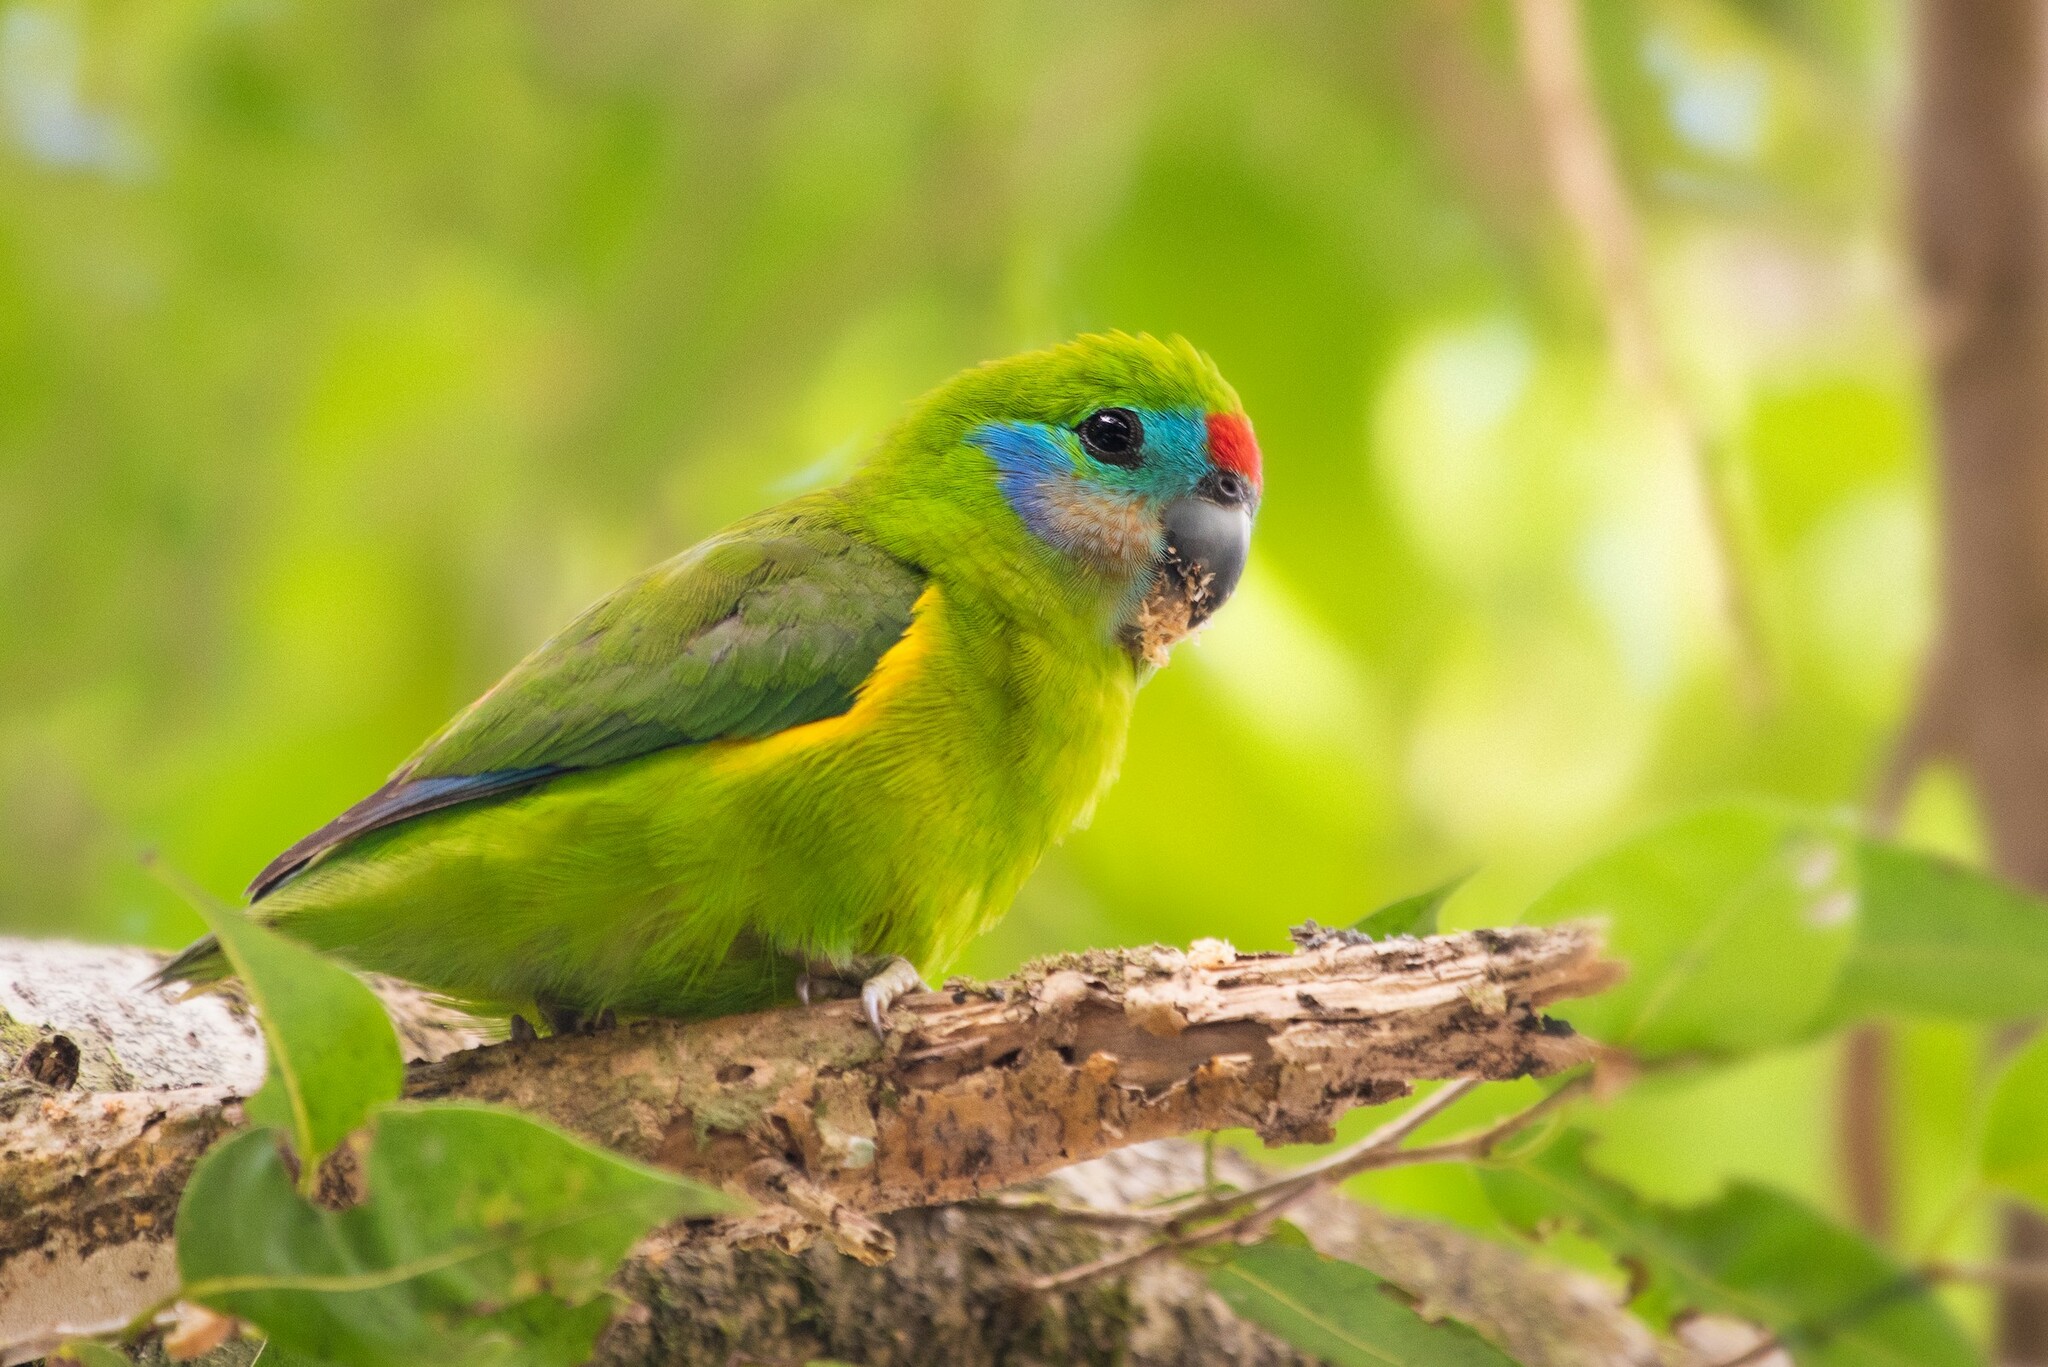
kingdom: Animalia
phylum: Chordata
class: Aves
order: Psittaciformes
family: Psittacidae
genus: Cyclopsitta
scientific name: Cyclopsitta diophthalma
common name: Double-eyed fig parrot
